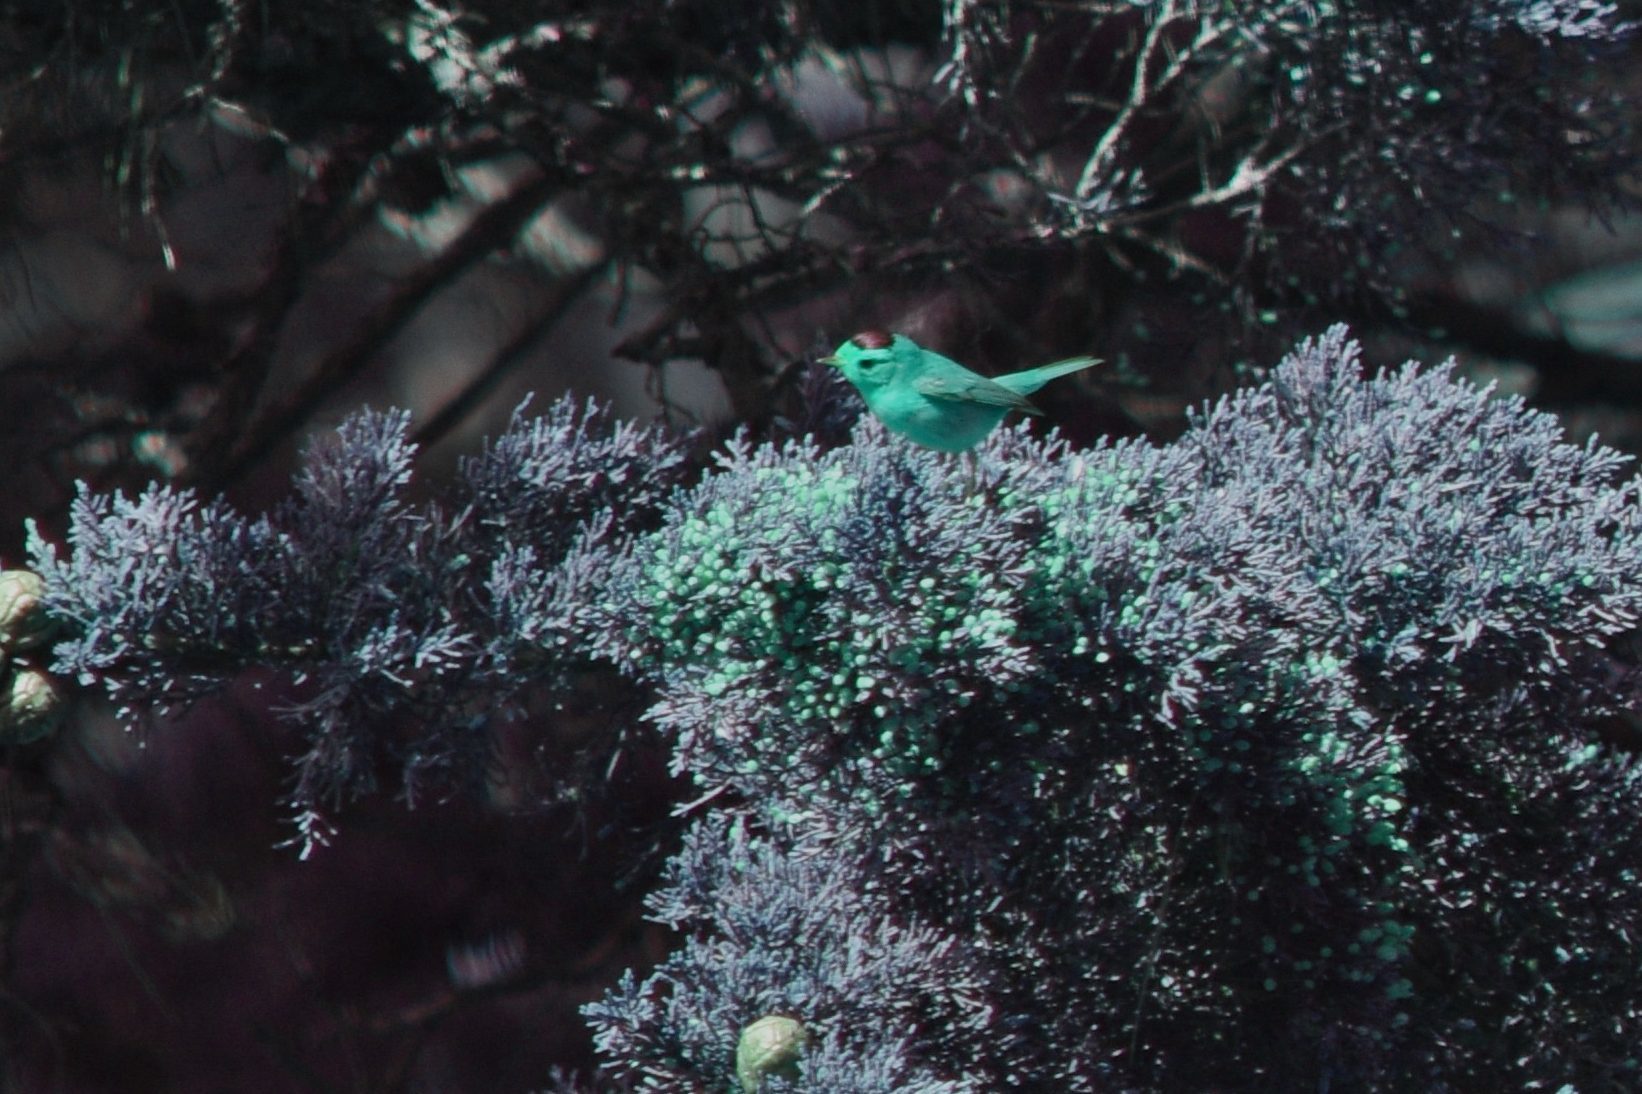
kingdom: Animalia
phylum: Chordata
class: Aves
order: Passeriformes
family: Parulidae
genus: Cardellina
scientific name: Cardellina pusilla
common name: Wilson's warbler
